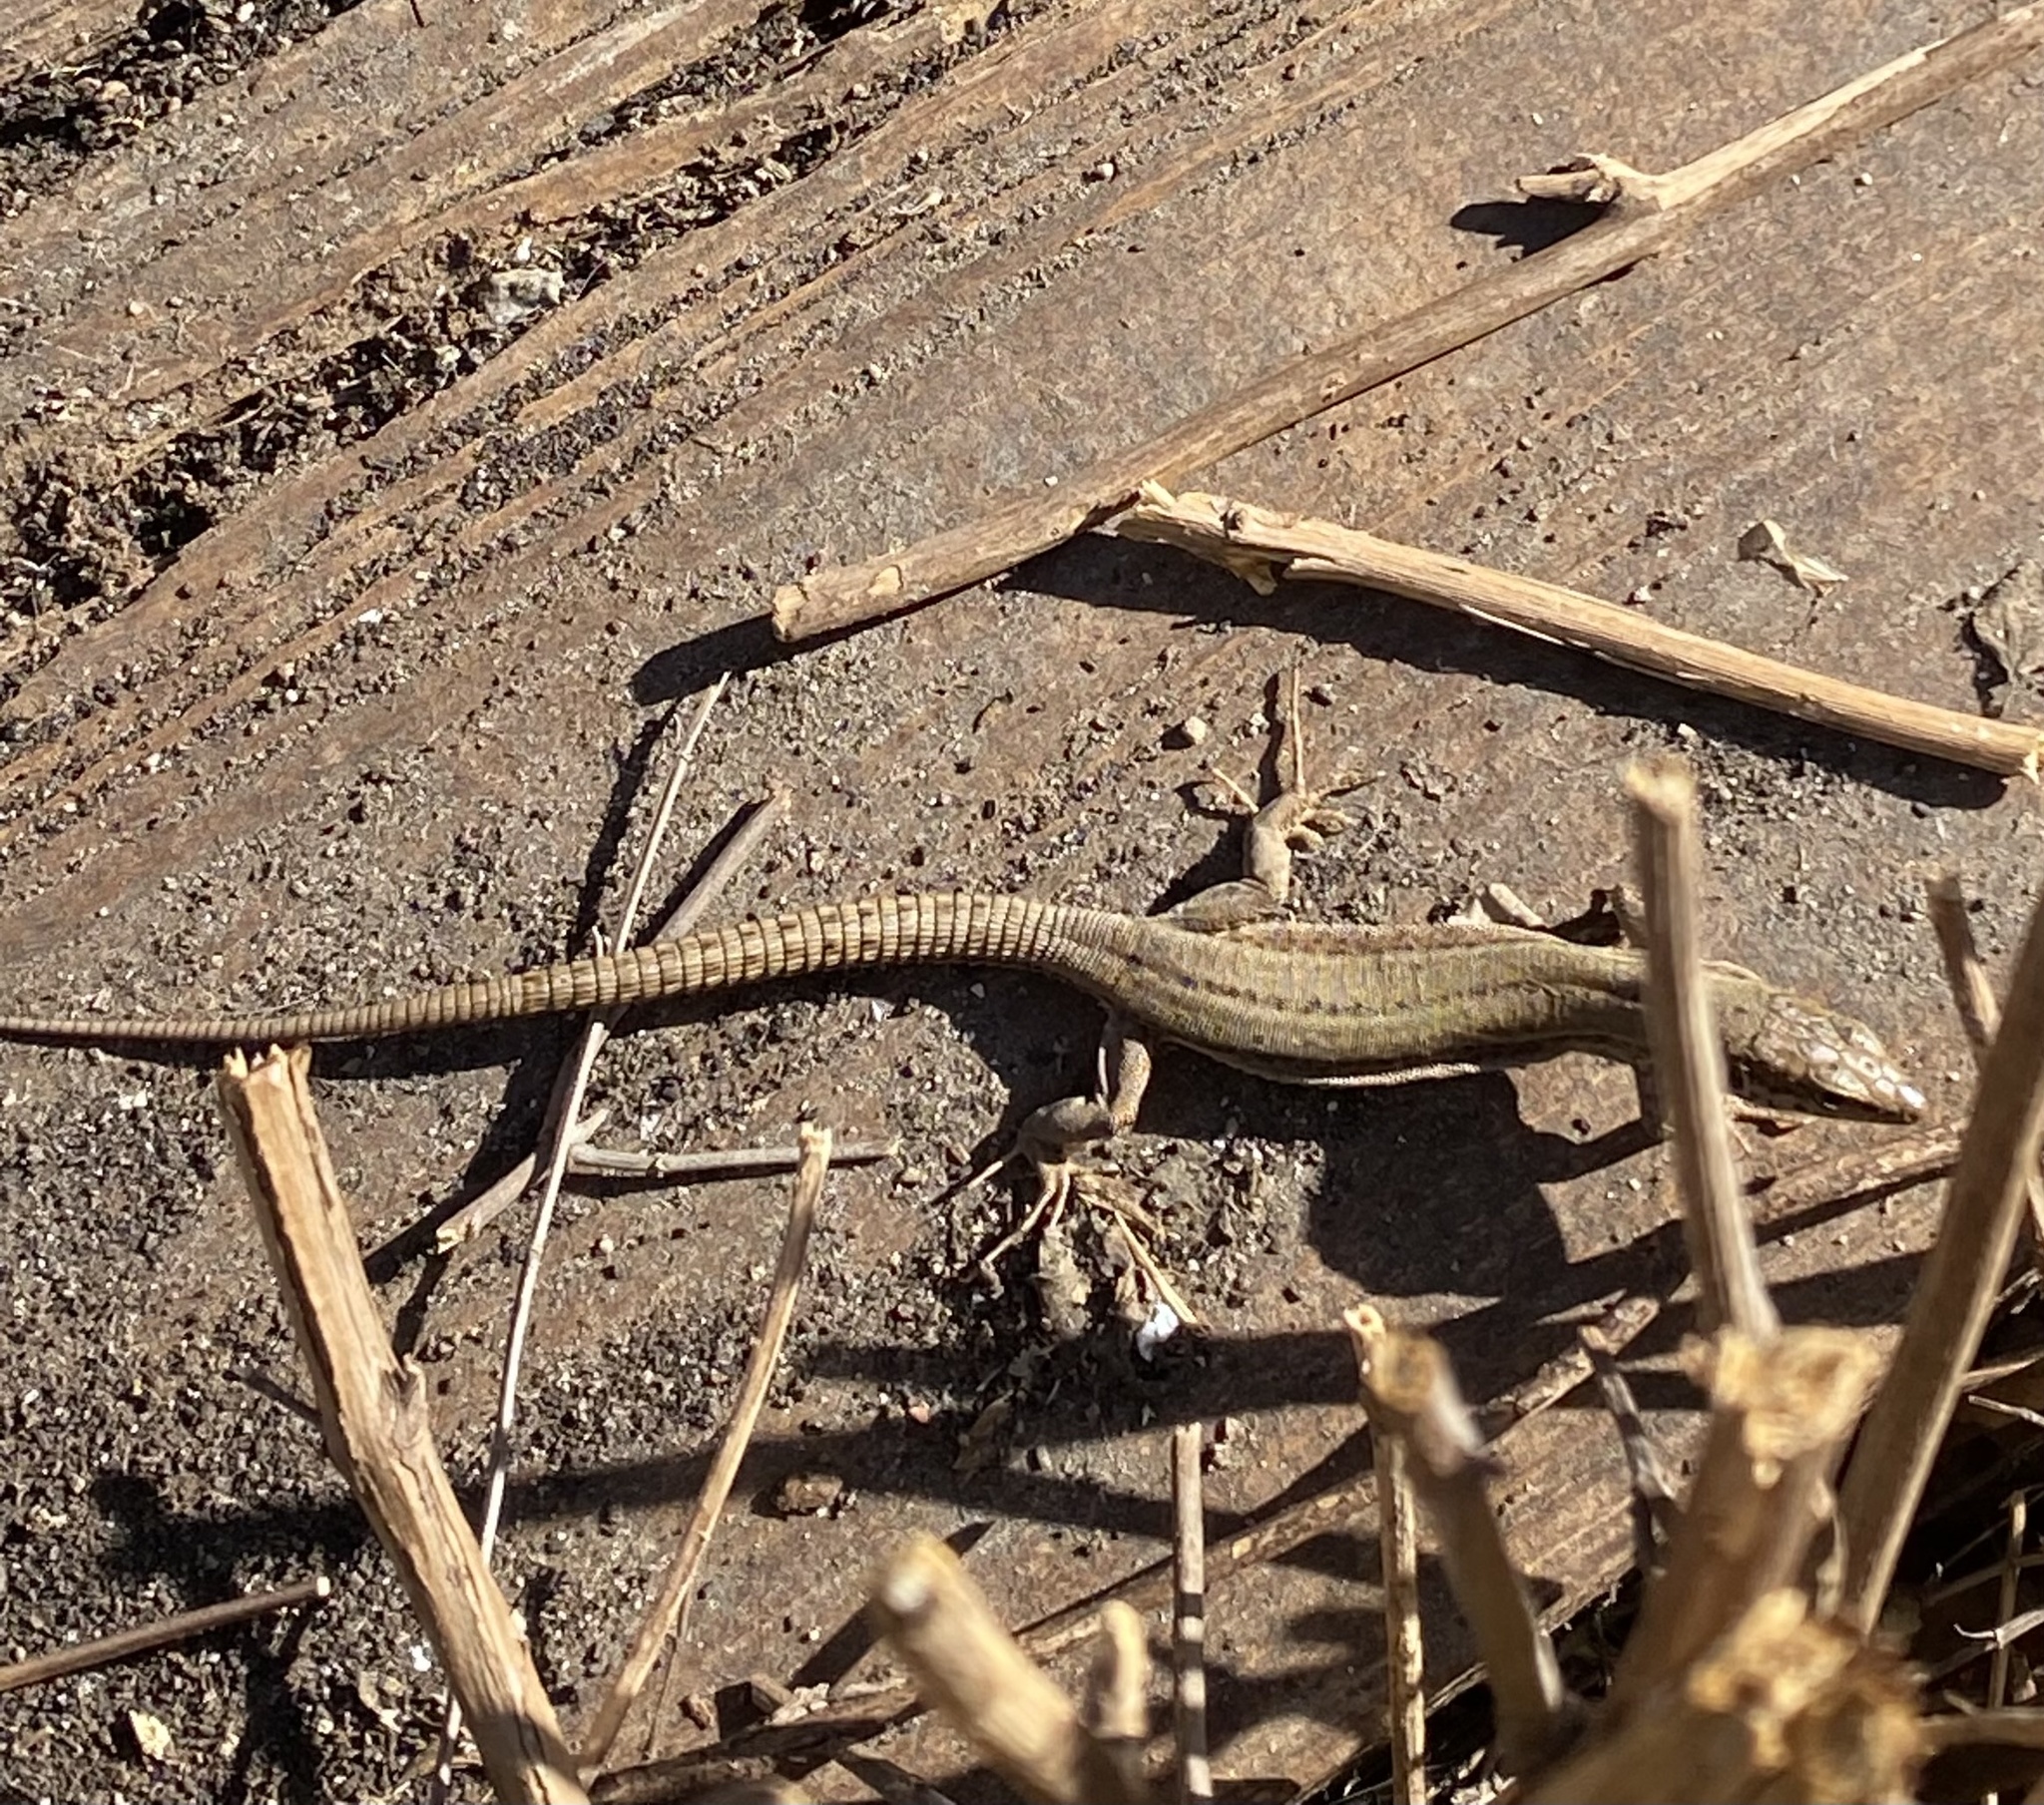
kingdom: Animalia
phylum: Chordata
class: Squamata
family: Lacertidae
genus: Podarcis
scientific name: Podarcis liolepis
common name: Catalonian wall lizard
